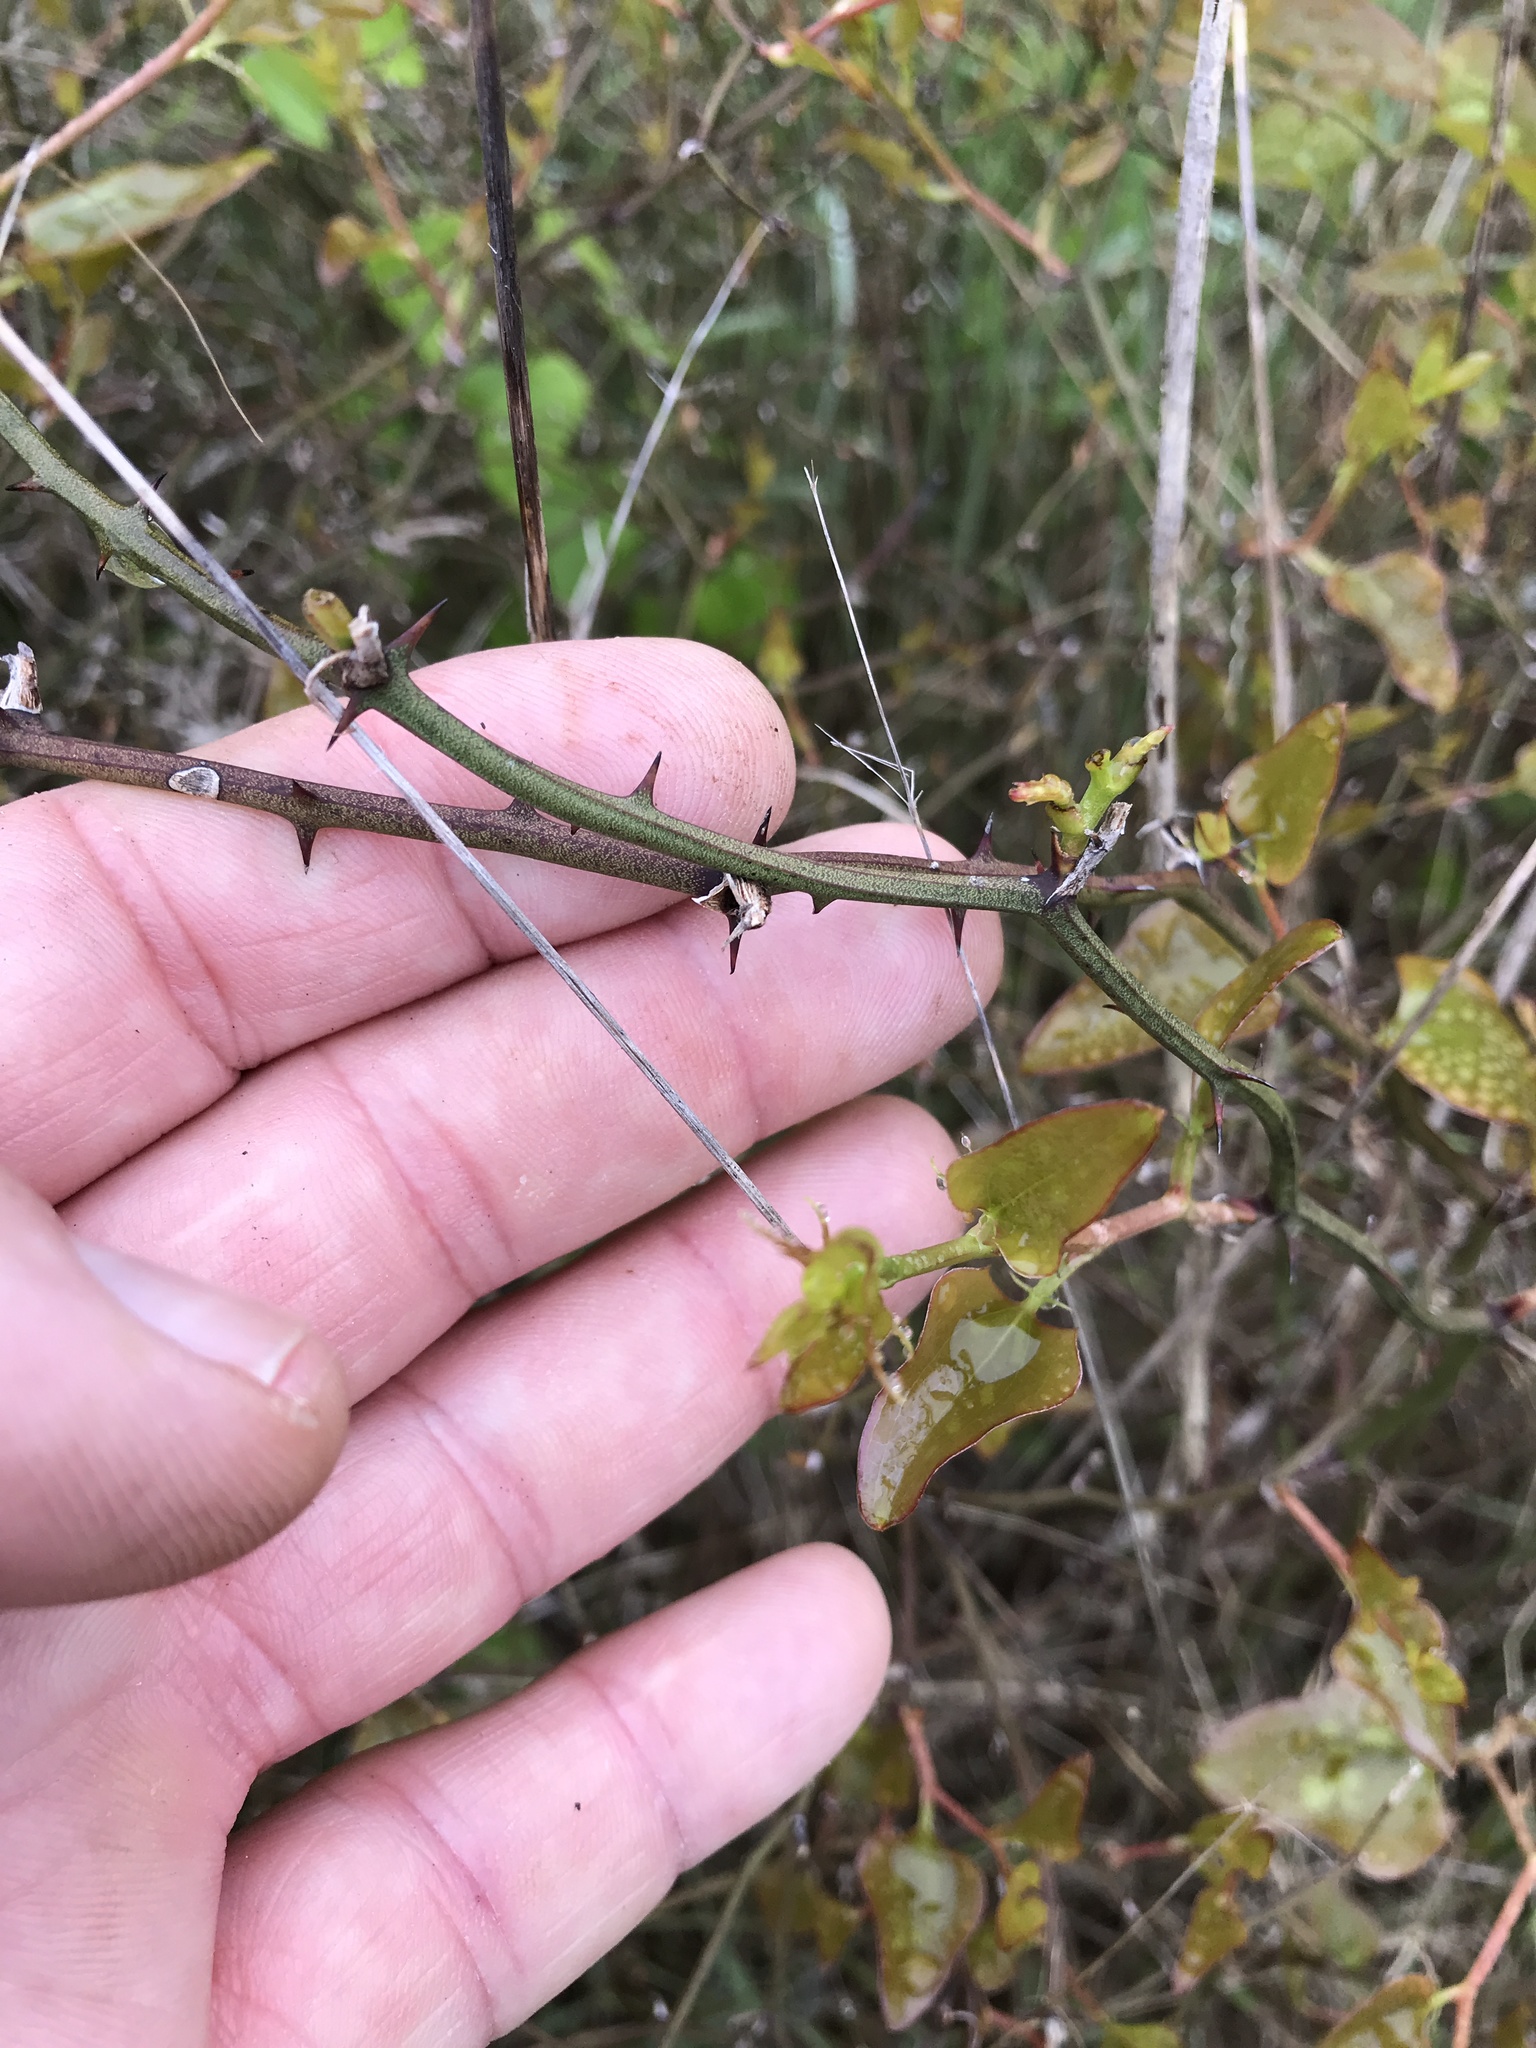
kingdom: Plantae
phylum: Tracheophyta
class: Liliopsida
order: Liliales
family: Smilacaceae
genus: Smilax
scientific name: Smilax bona-nox
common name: Catbrier
